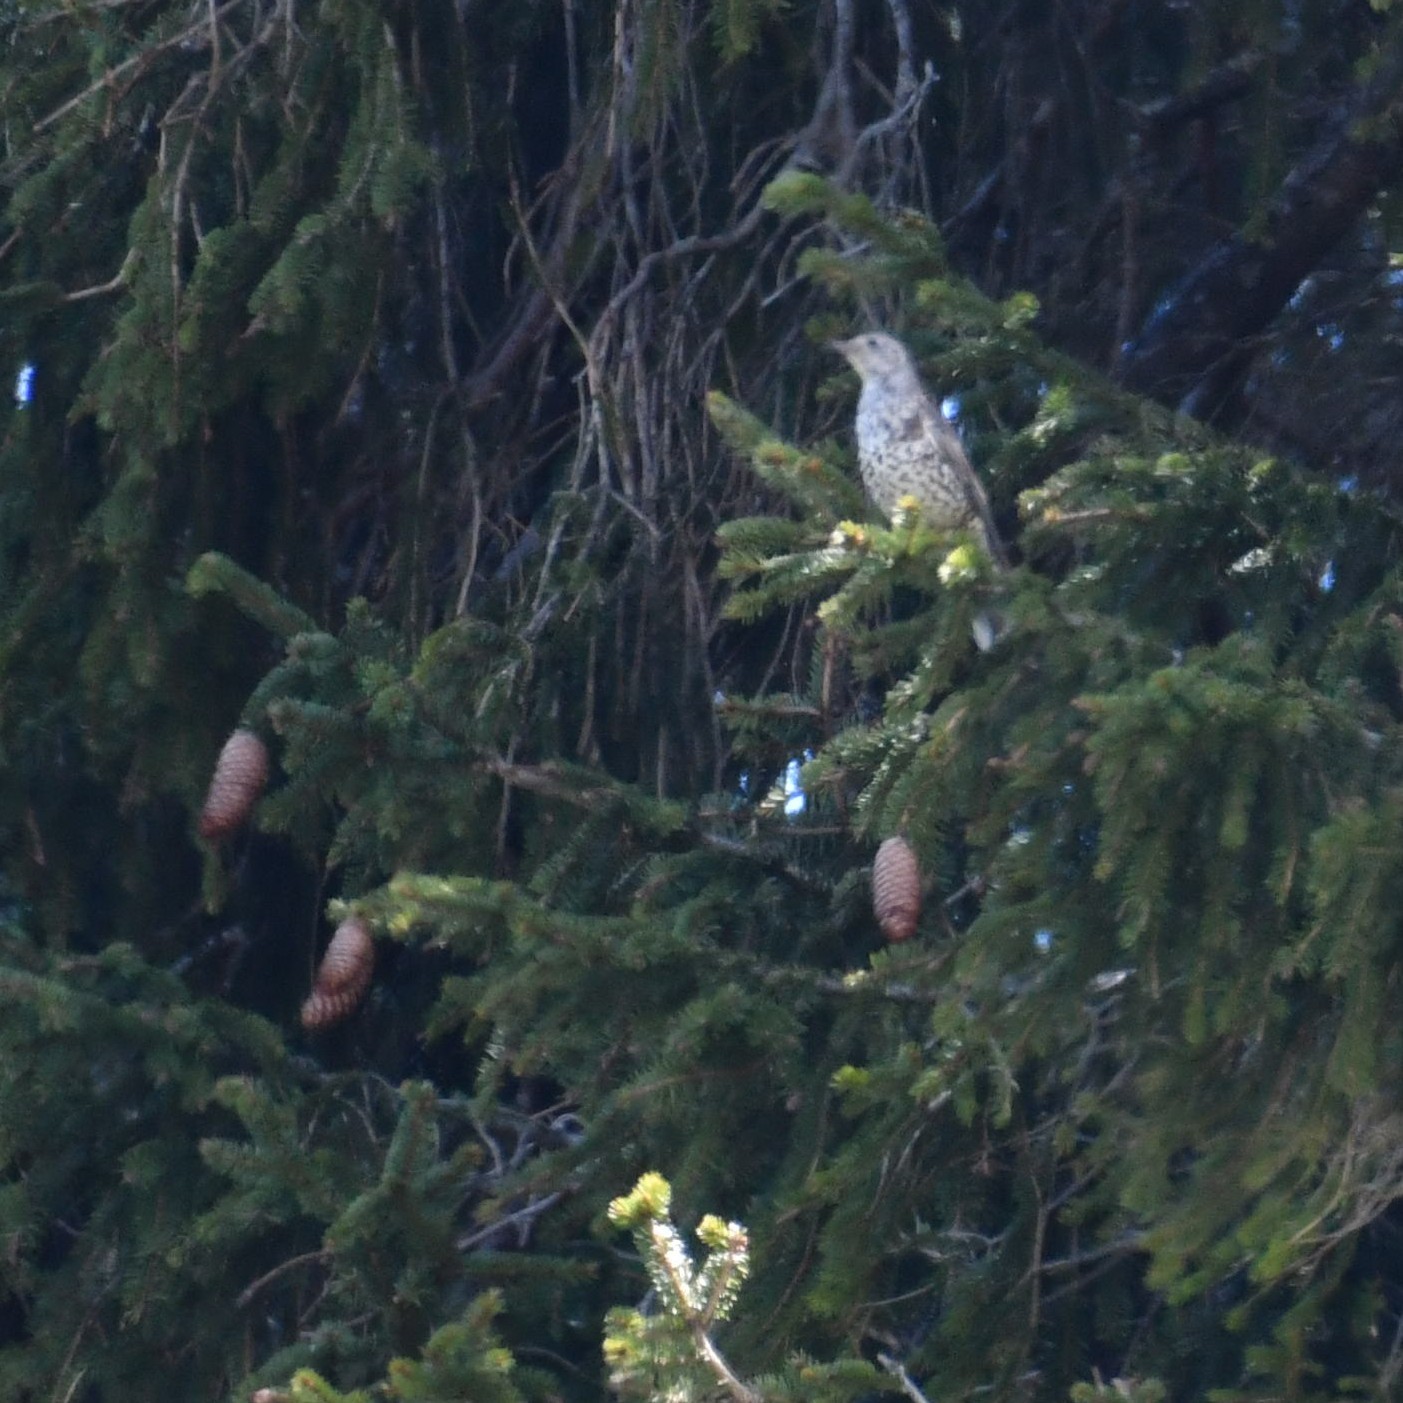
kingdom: Animalia
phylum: Chordata
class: Aves
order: Passeriformes
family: Turdidae
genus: Turdus
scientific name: Turdus viscivorus
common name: Mistle thrush
